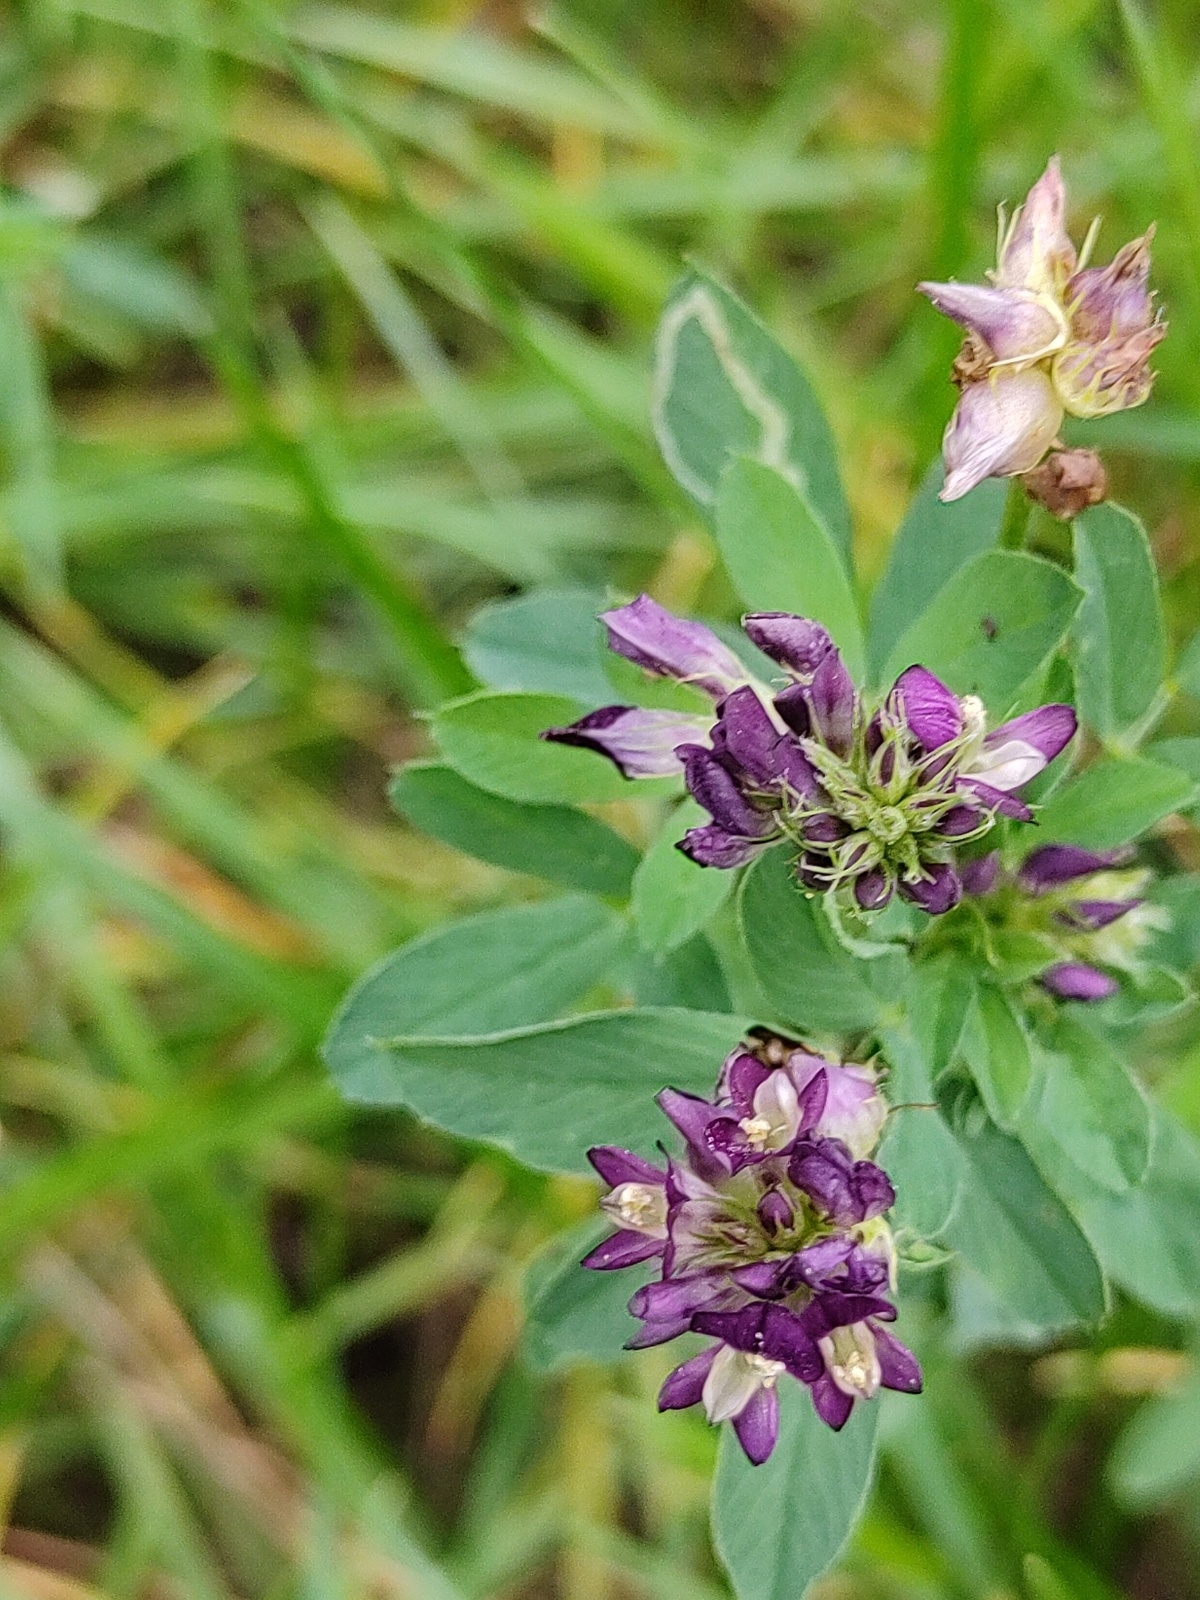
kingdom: Plantae
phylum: Tracheophyta
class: Magnoliopsida
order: Fabales
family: Fabaceae
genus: Medicago
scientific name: Medicago sativa
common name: Alfalfa
